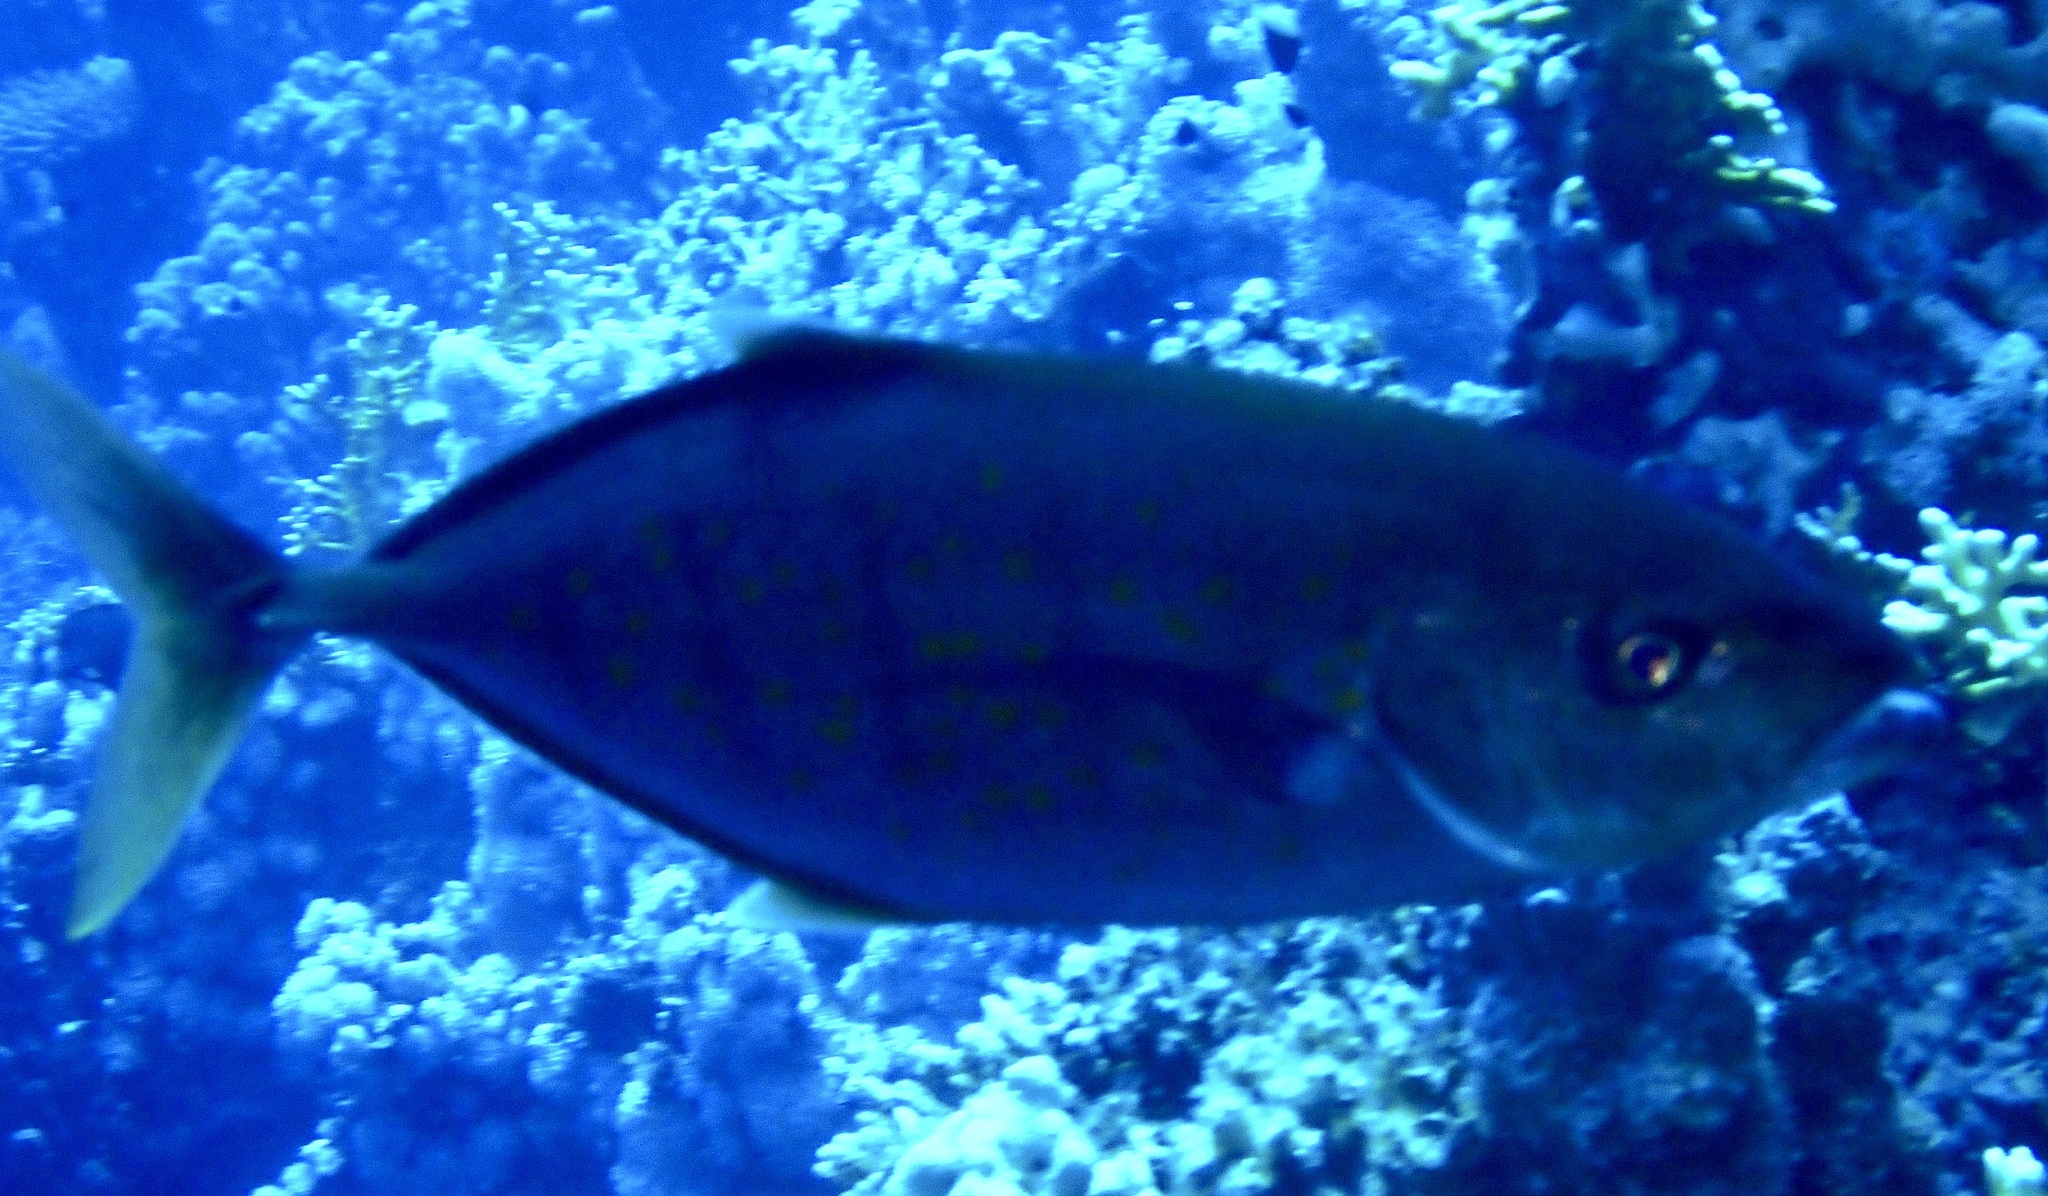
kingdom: Animalia
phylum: Chordata
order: Perciformes
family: Carangidae
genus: Flavocaranx
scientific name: Flavocaranx bajad
